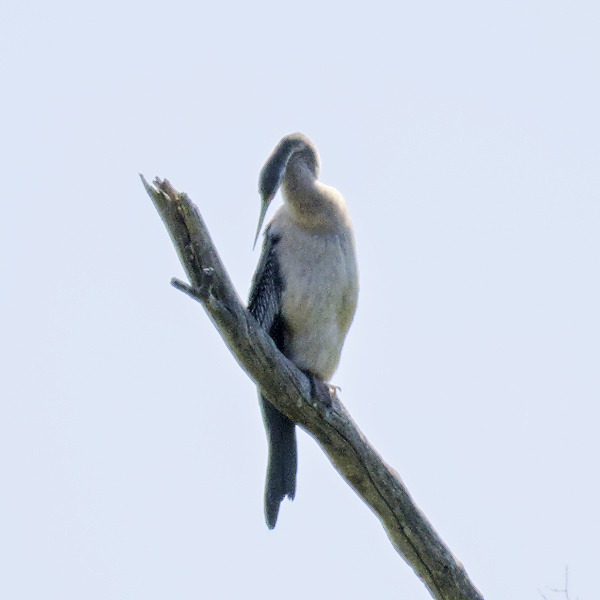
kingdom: Animalia
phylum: Chordata
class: Aves
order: Suliformes
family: Anhingidae
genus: Anhinga
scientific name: Anhinga novaehollandiae
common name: Australasian darter
